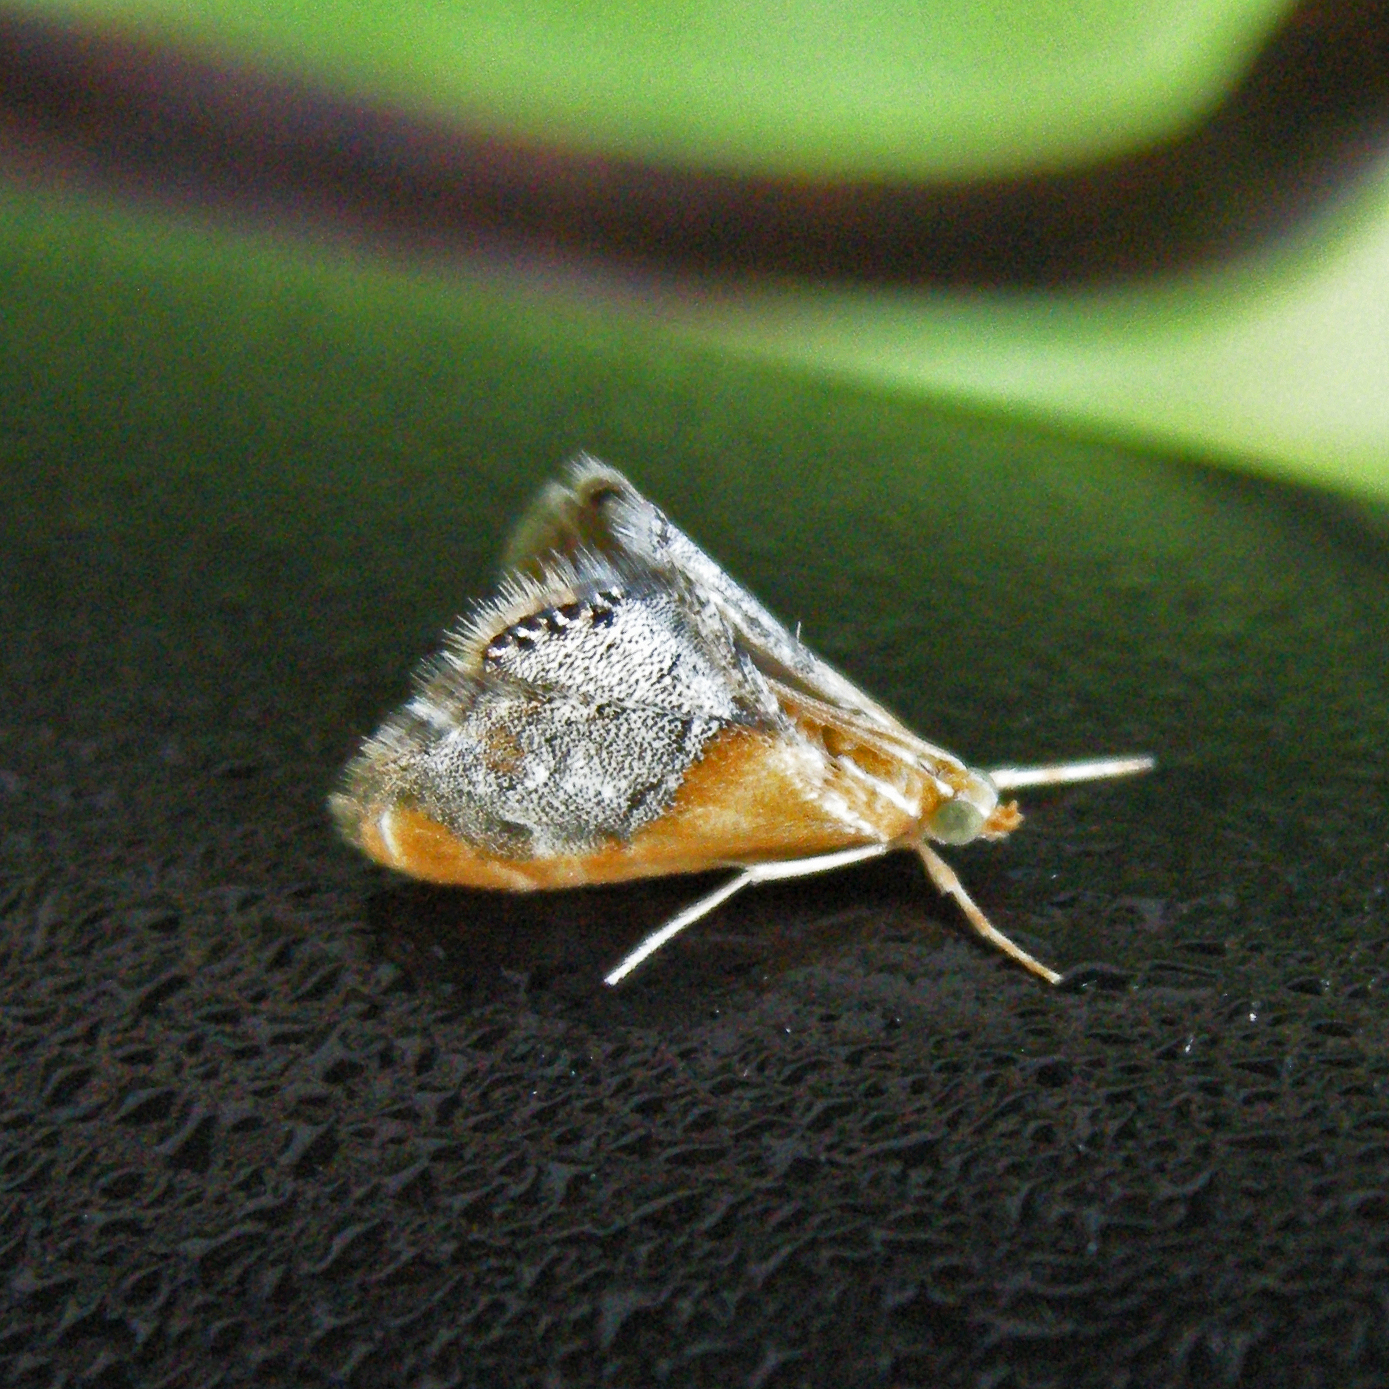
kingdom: Animalia
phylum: Arthropoda
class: Insecta
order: Lepidoptera
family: Crambidae
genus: Chalcoela
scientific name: Chalcoela iphitalis
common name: Sooty-winged chalcoela moth
